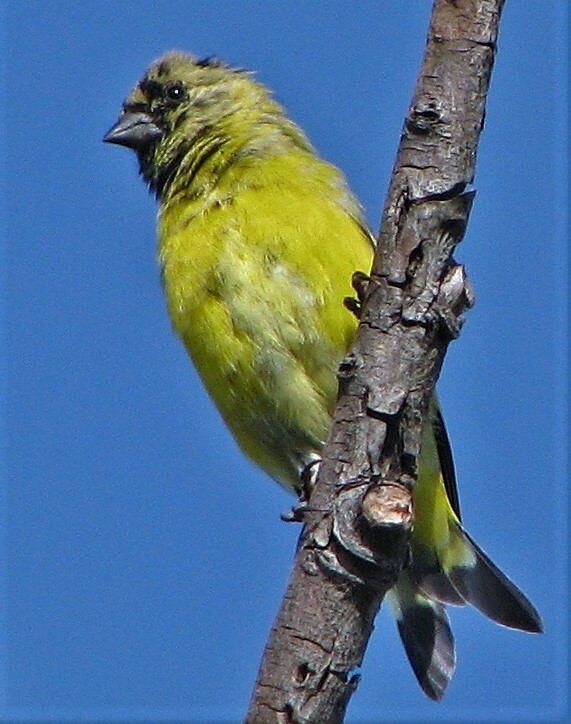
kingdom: Animalia
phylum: Chordata
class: Aves
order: Passeriformes
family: Fringillidae
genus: Spinus
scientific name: Spinus magellanicus
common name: Hooded siskin
